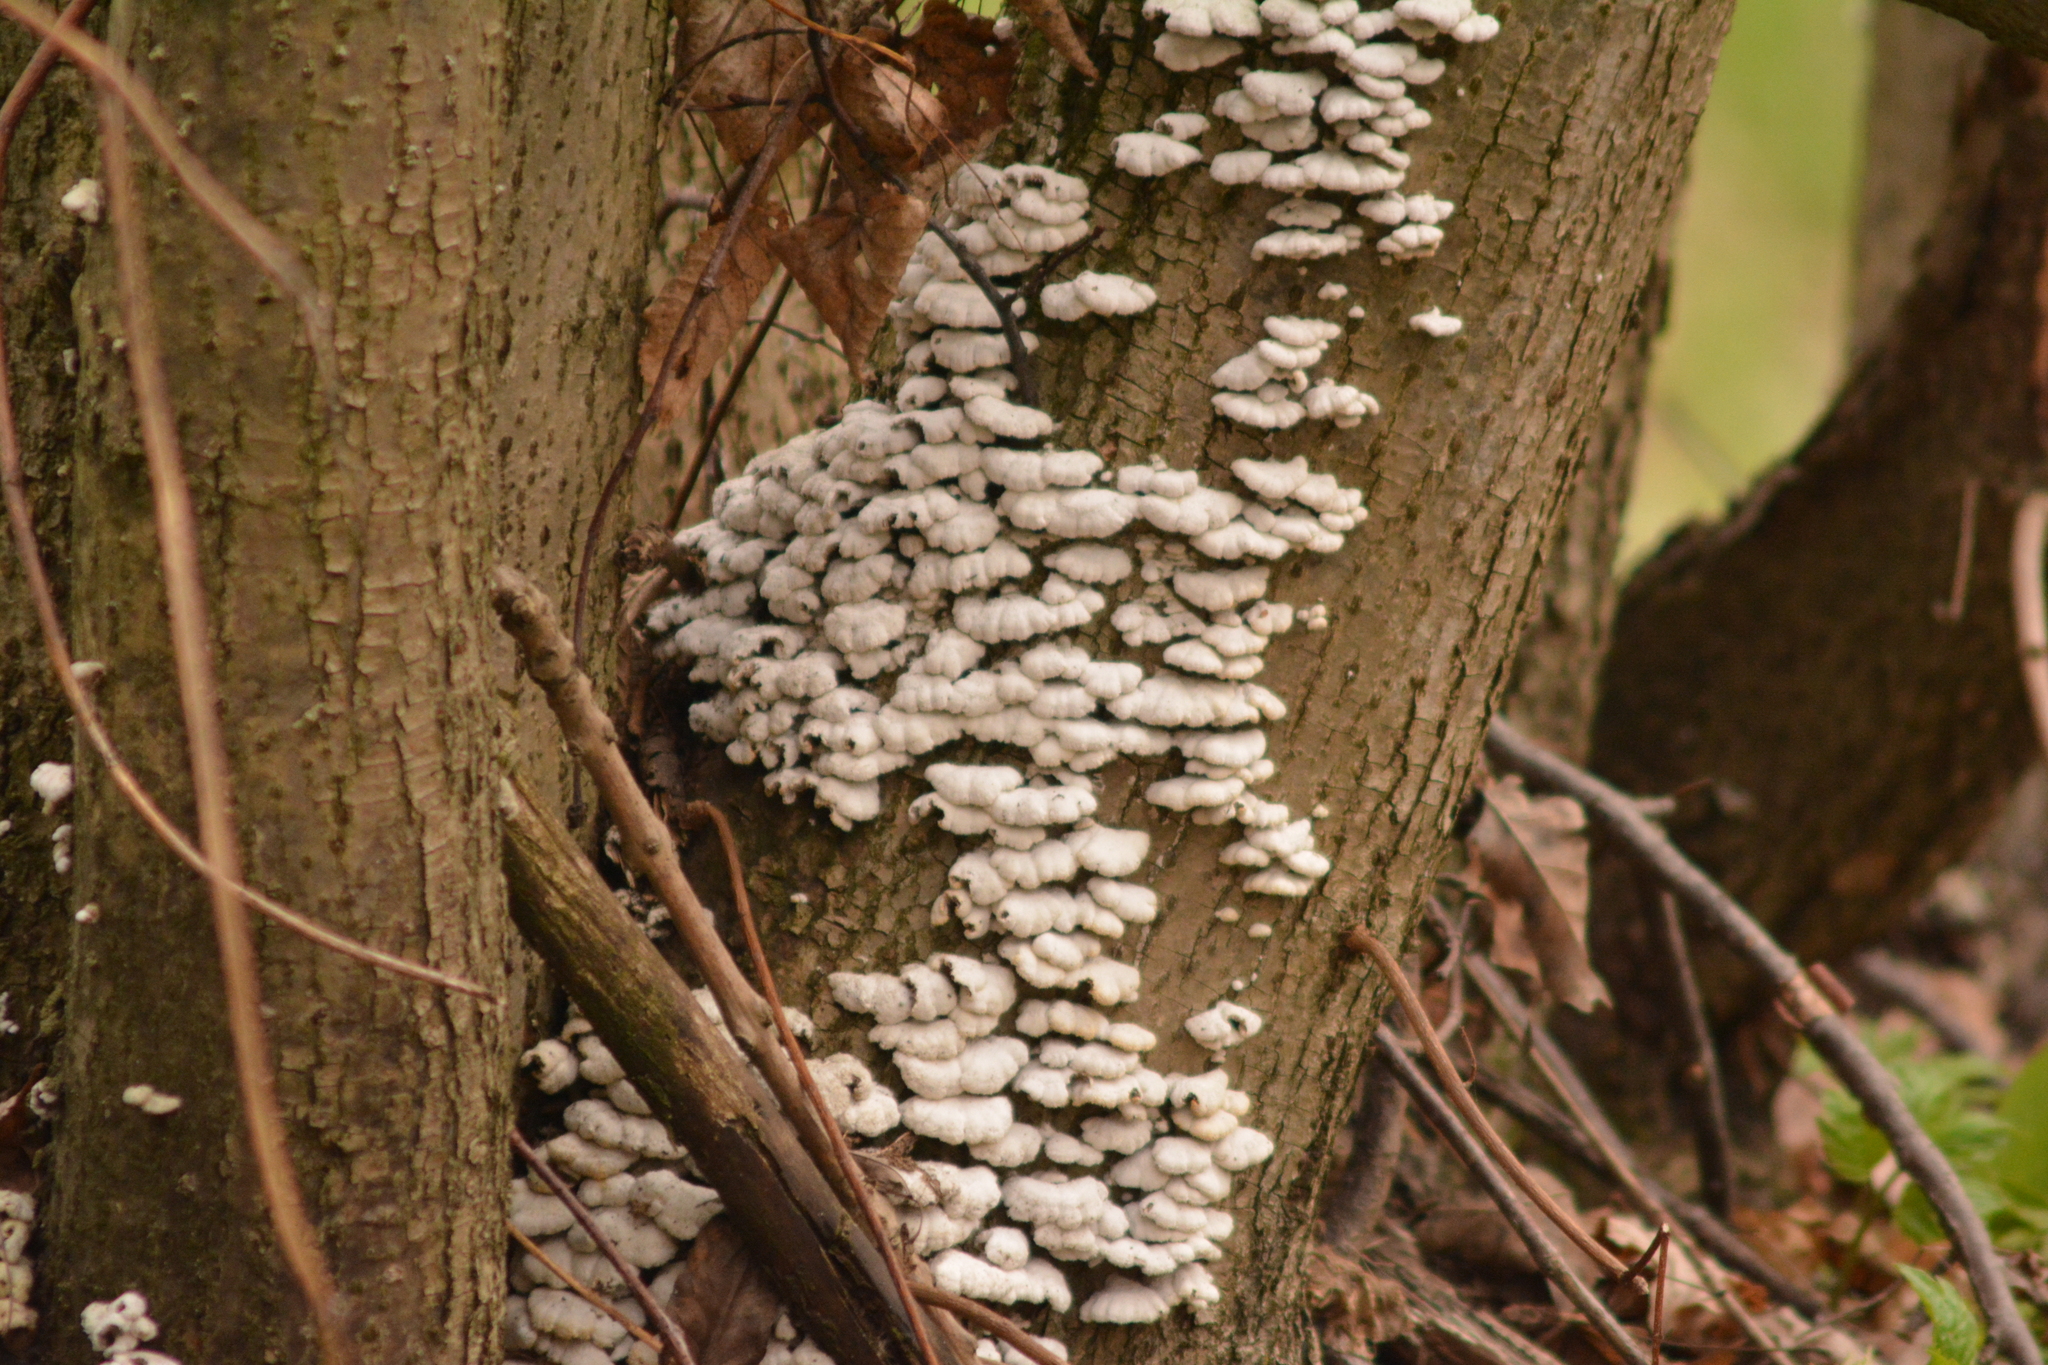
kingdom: Fungi
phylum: Basidiomycota
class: Agaricomycetes
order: Agaricales
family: Schizophyllaceae
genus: Schizophyllum
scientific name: Schizophyllum commune
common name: Common porecrust
